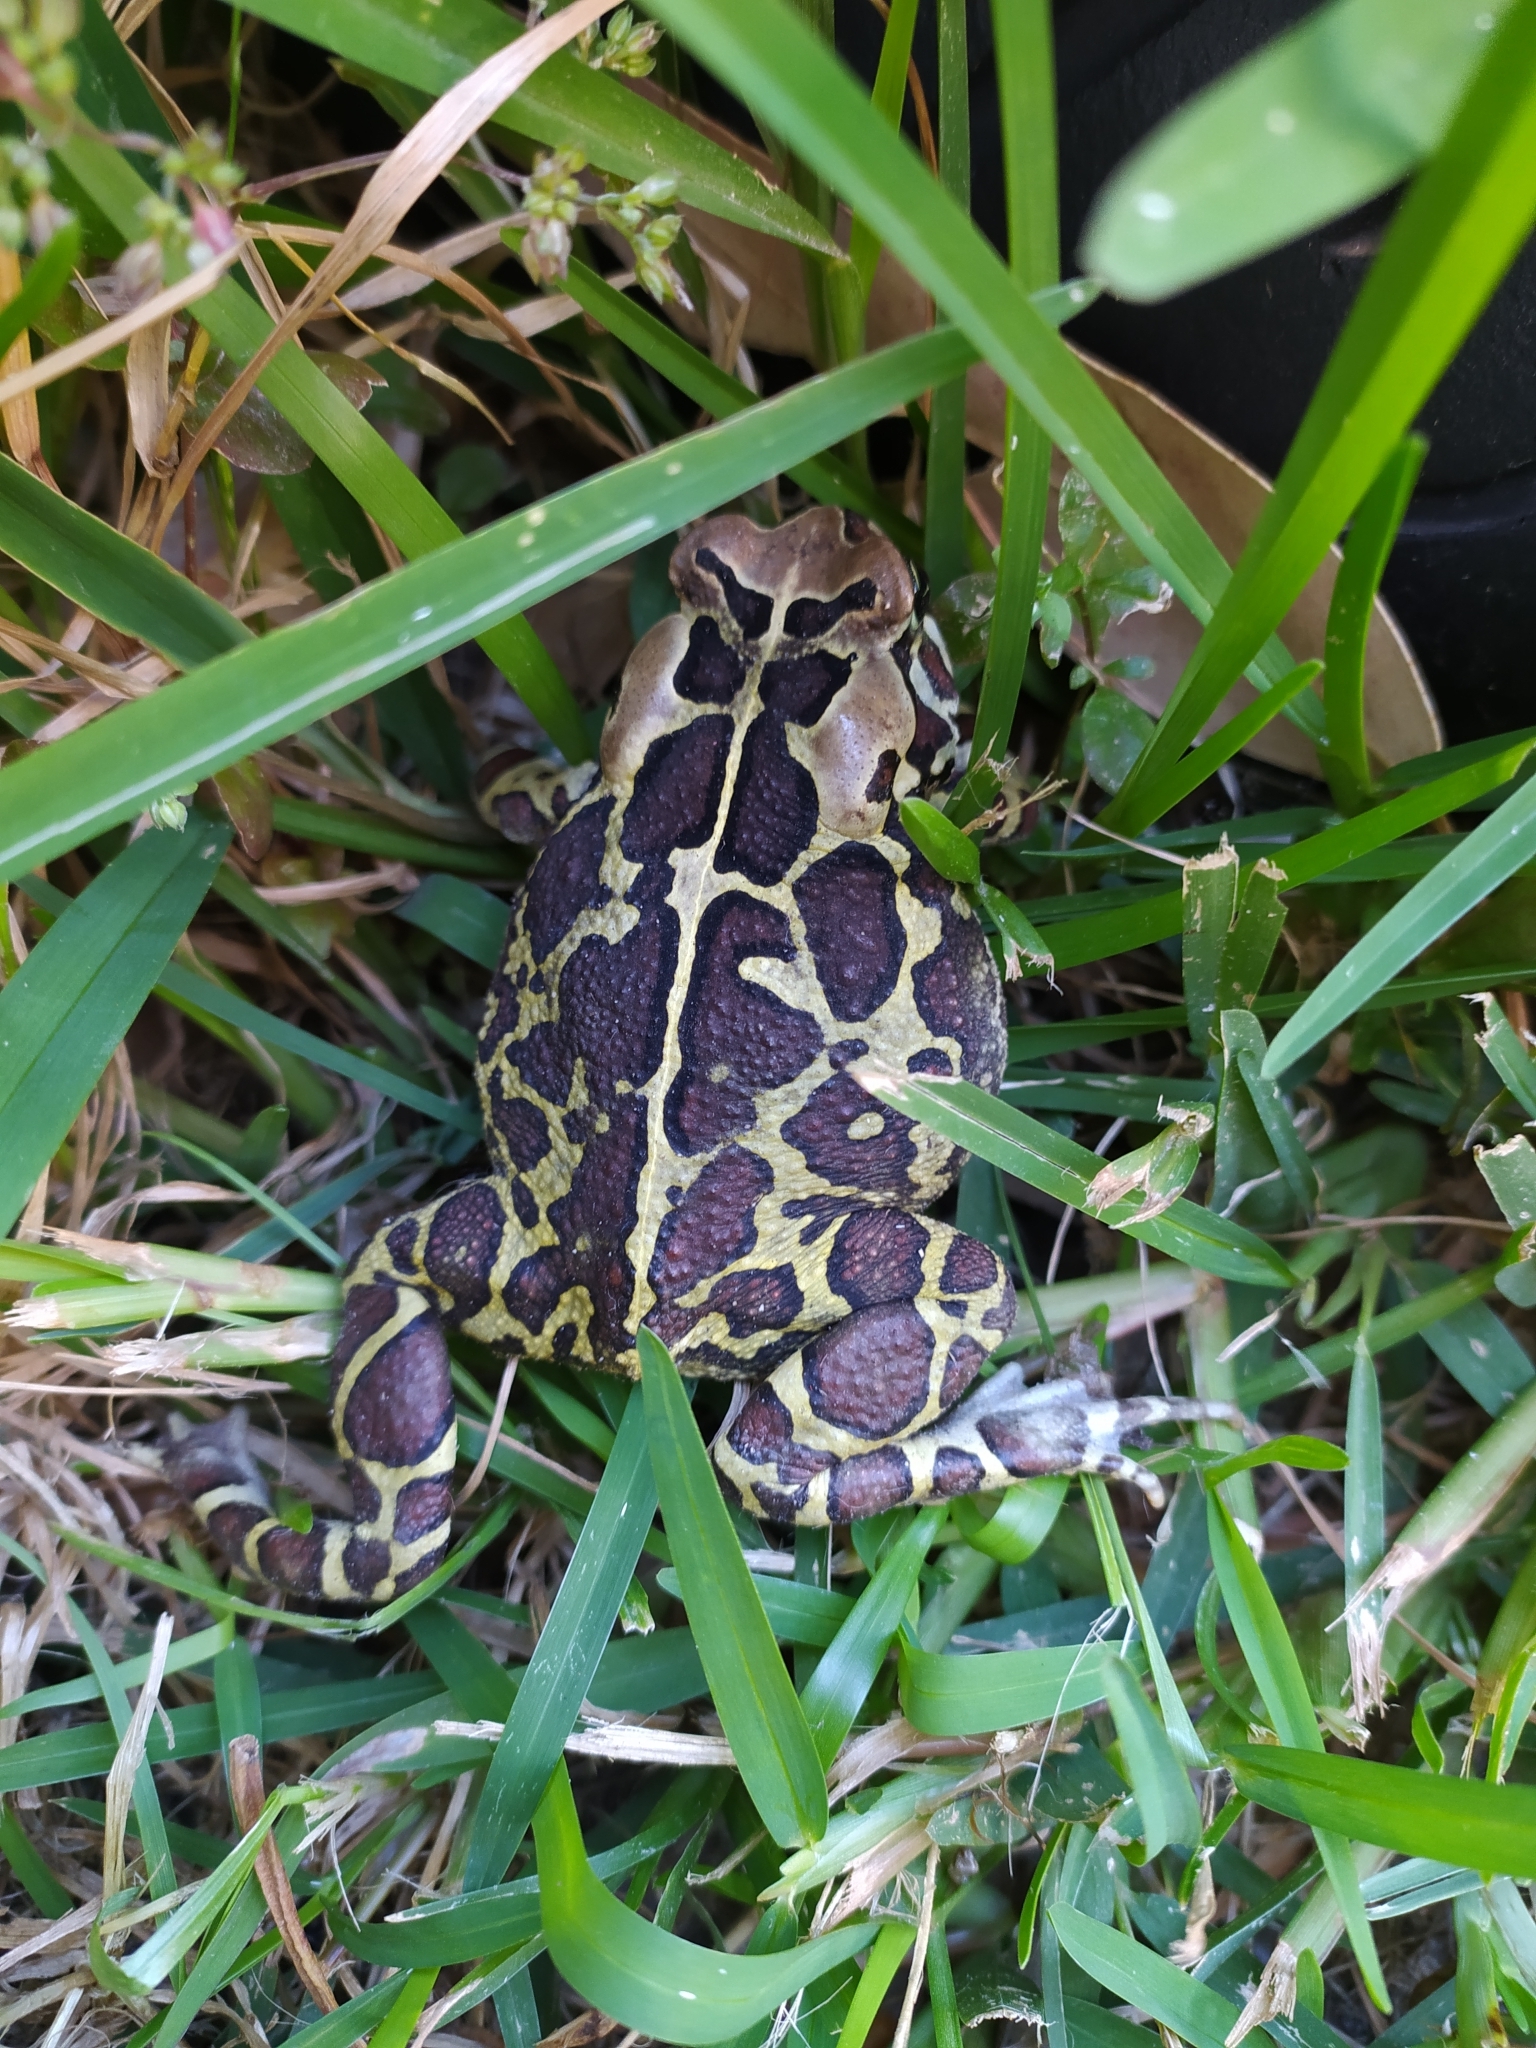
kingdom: Animalia
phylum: Chordata
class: Amphibia
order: Anura
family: Bufonidae
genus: Sclerophrys
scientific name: Sclerophrys pantherina
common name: Panther toad
